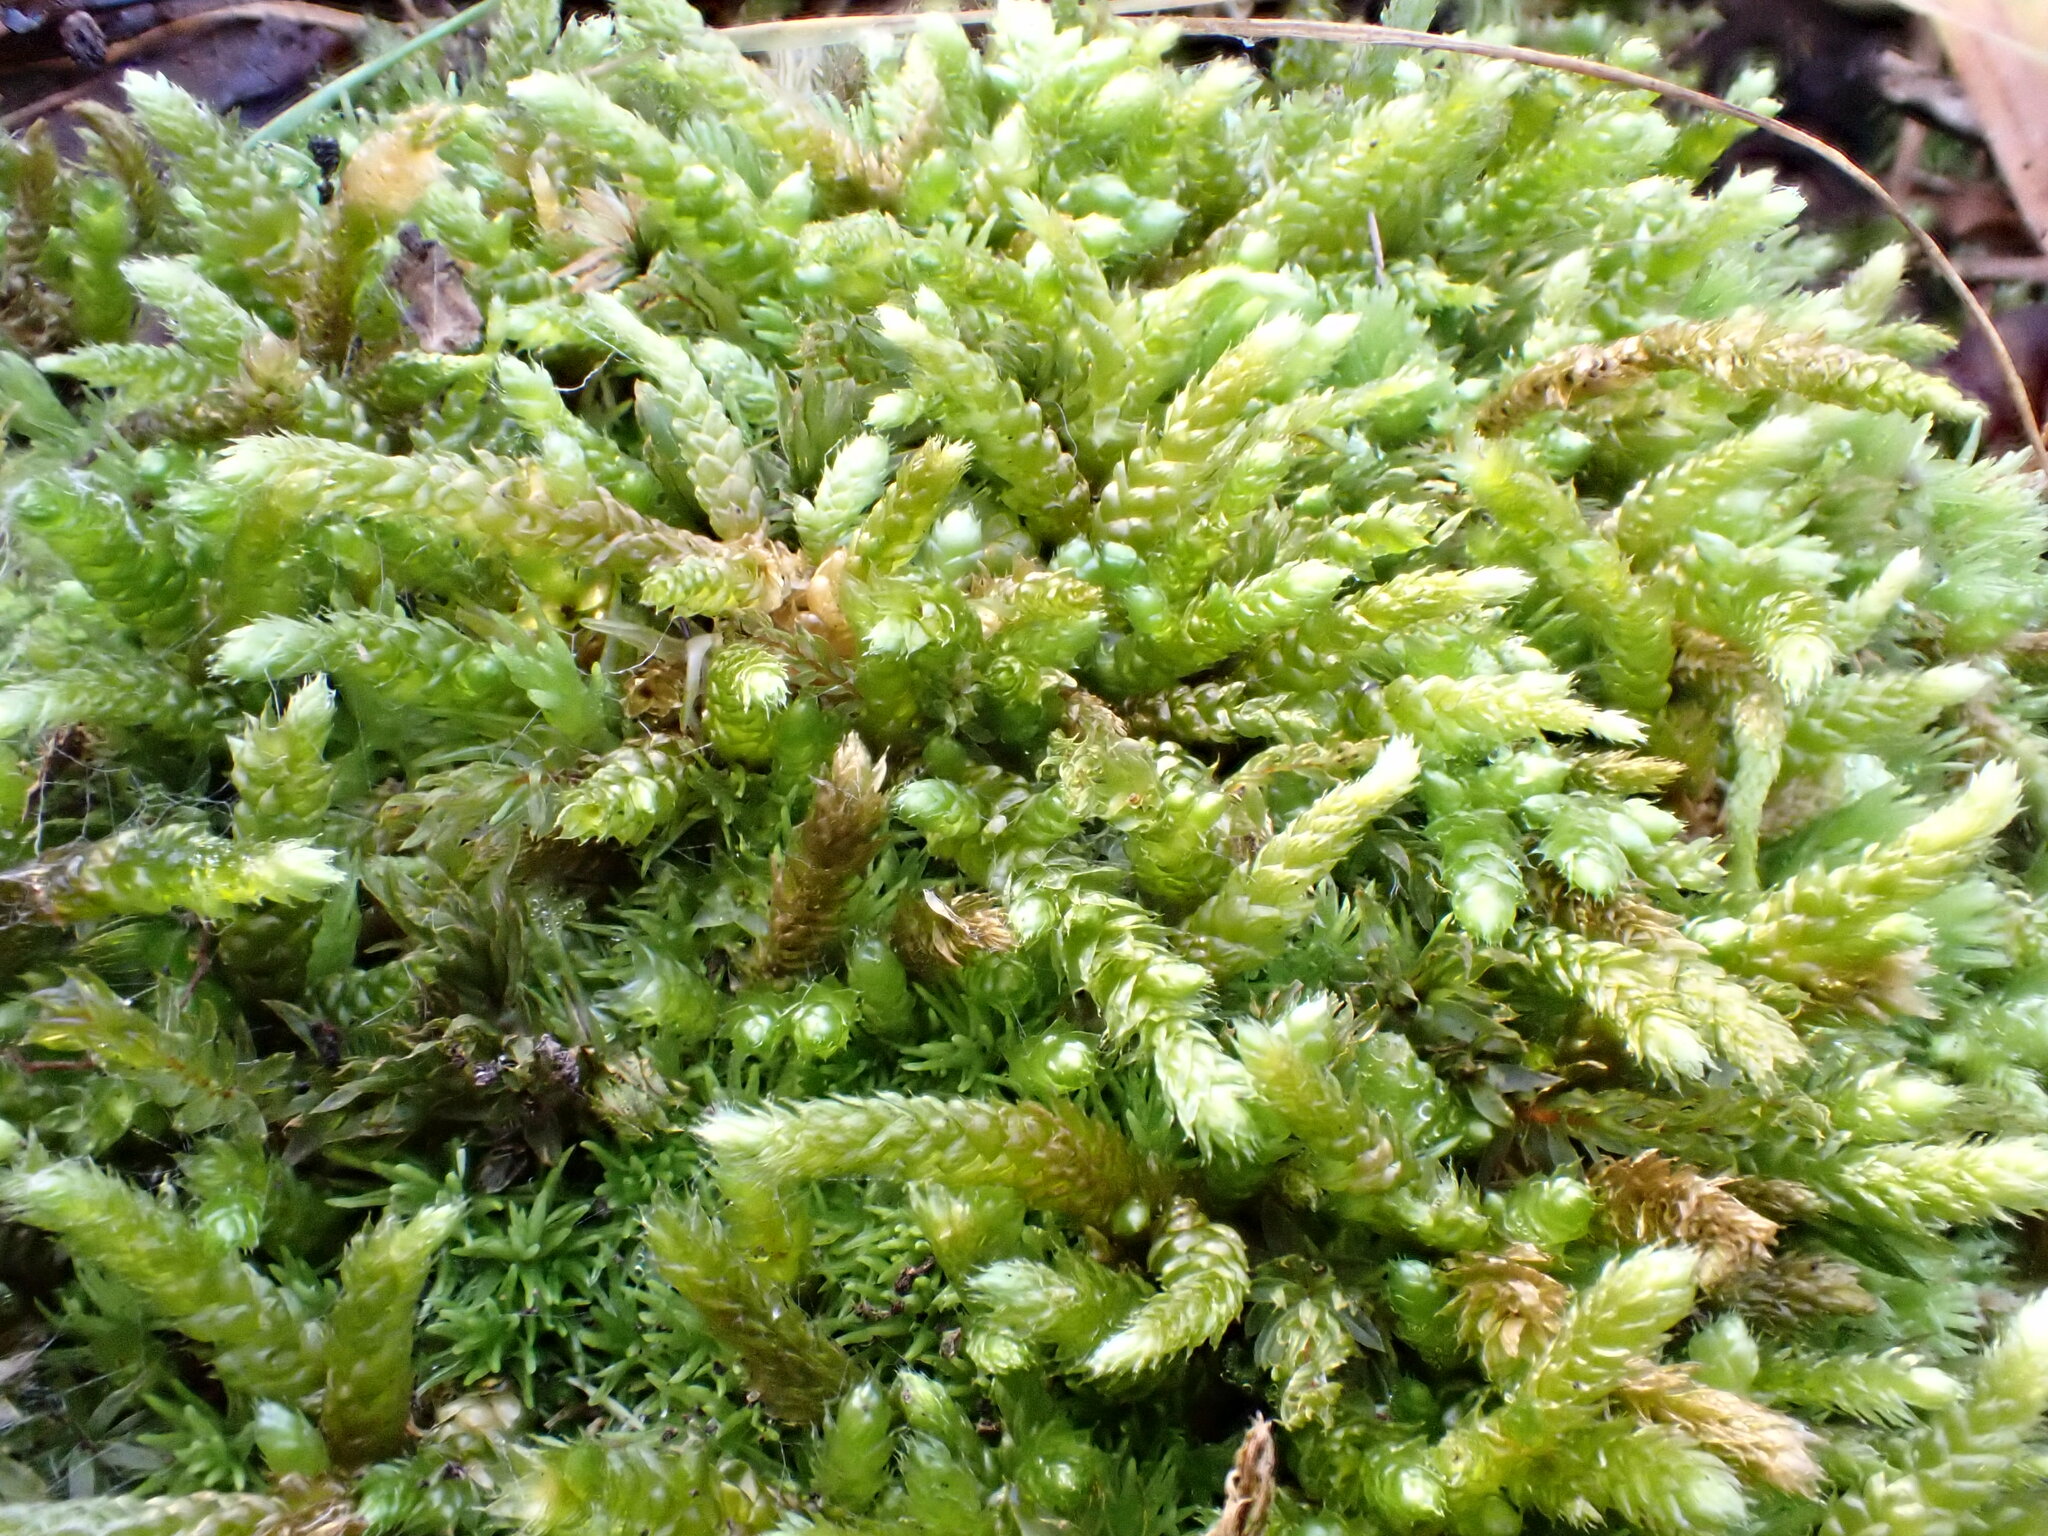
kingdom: Plantae
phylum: Bryophyta
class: Bryopsida
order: Hypnales
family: Brachytheciaceae
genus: Bryoandersonia
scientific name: Bryoandersonia illecebra
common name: Spoon-leaved moss
